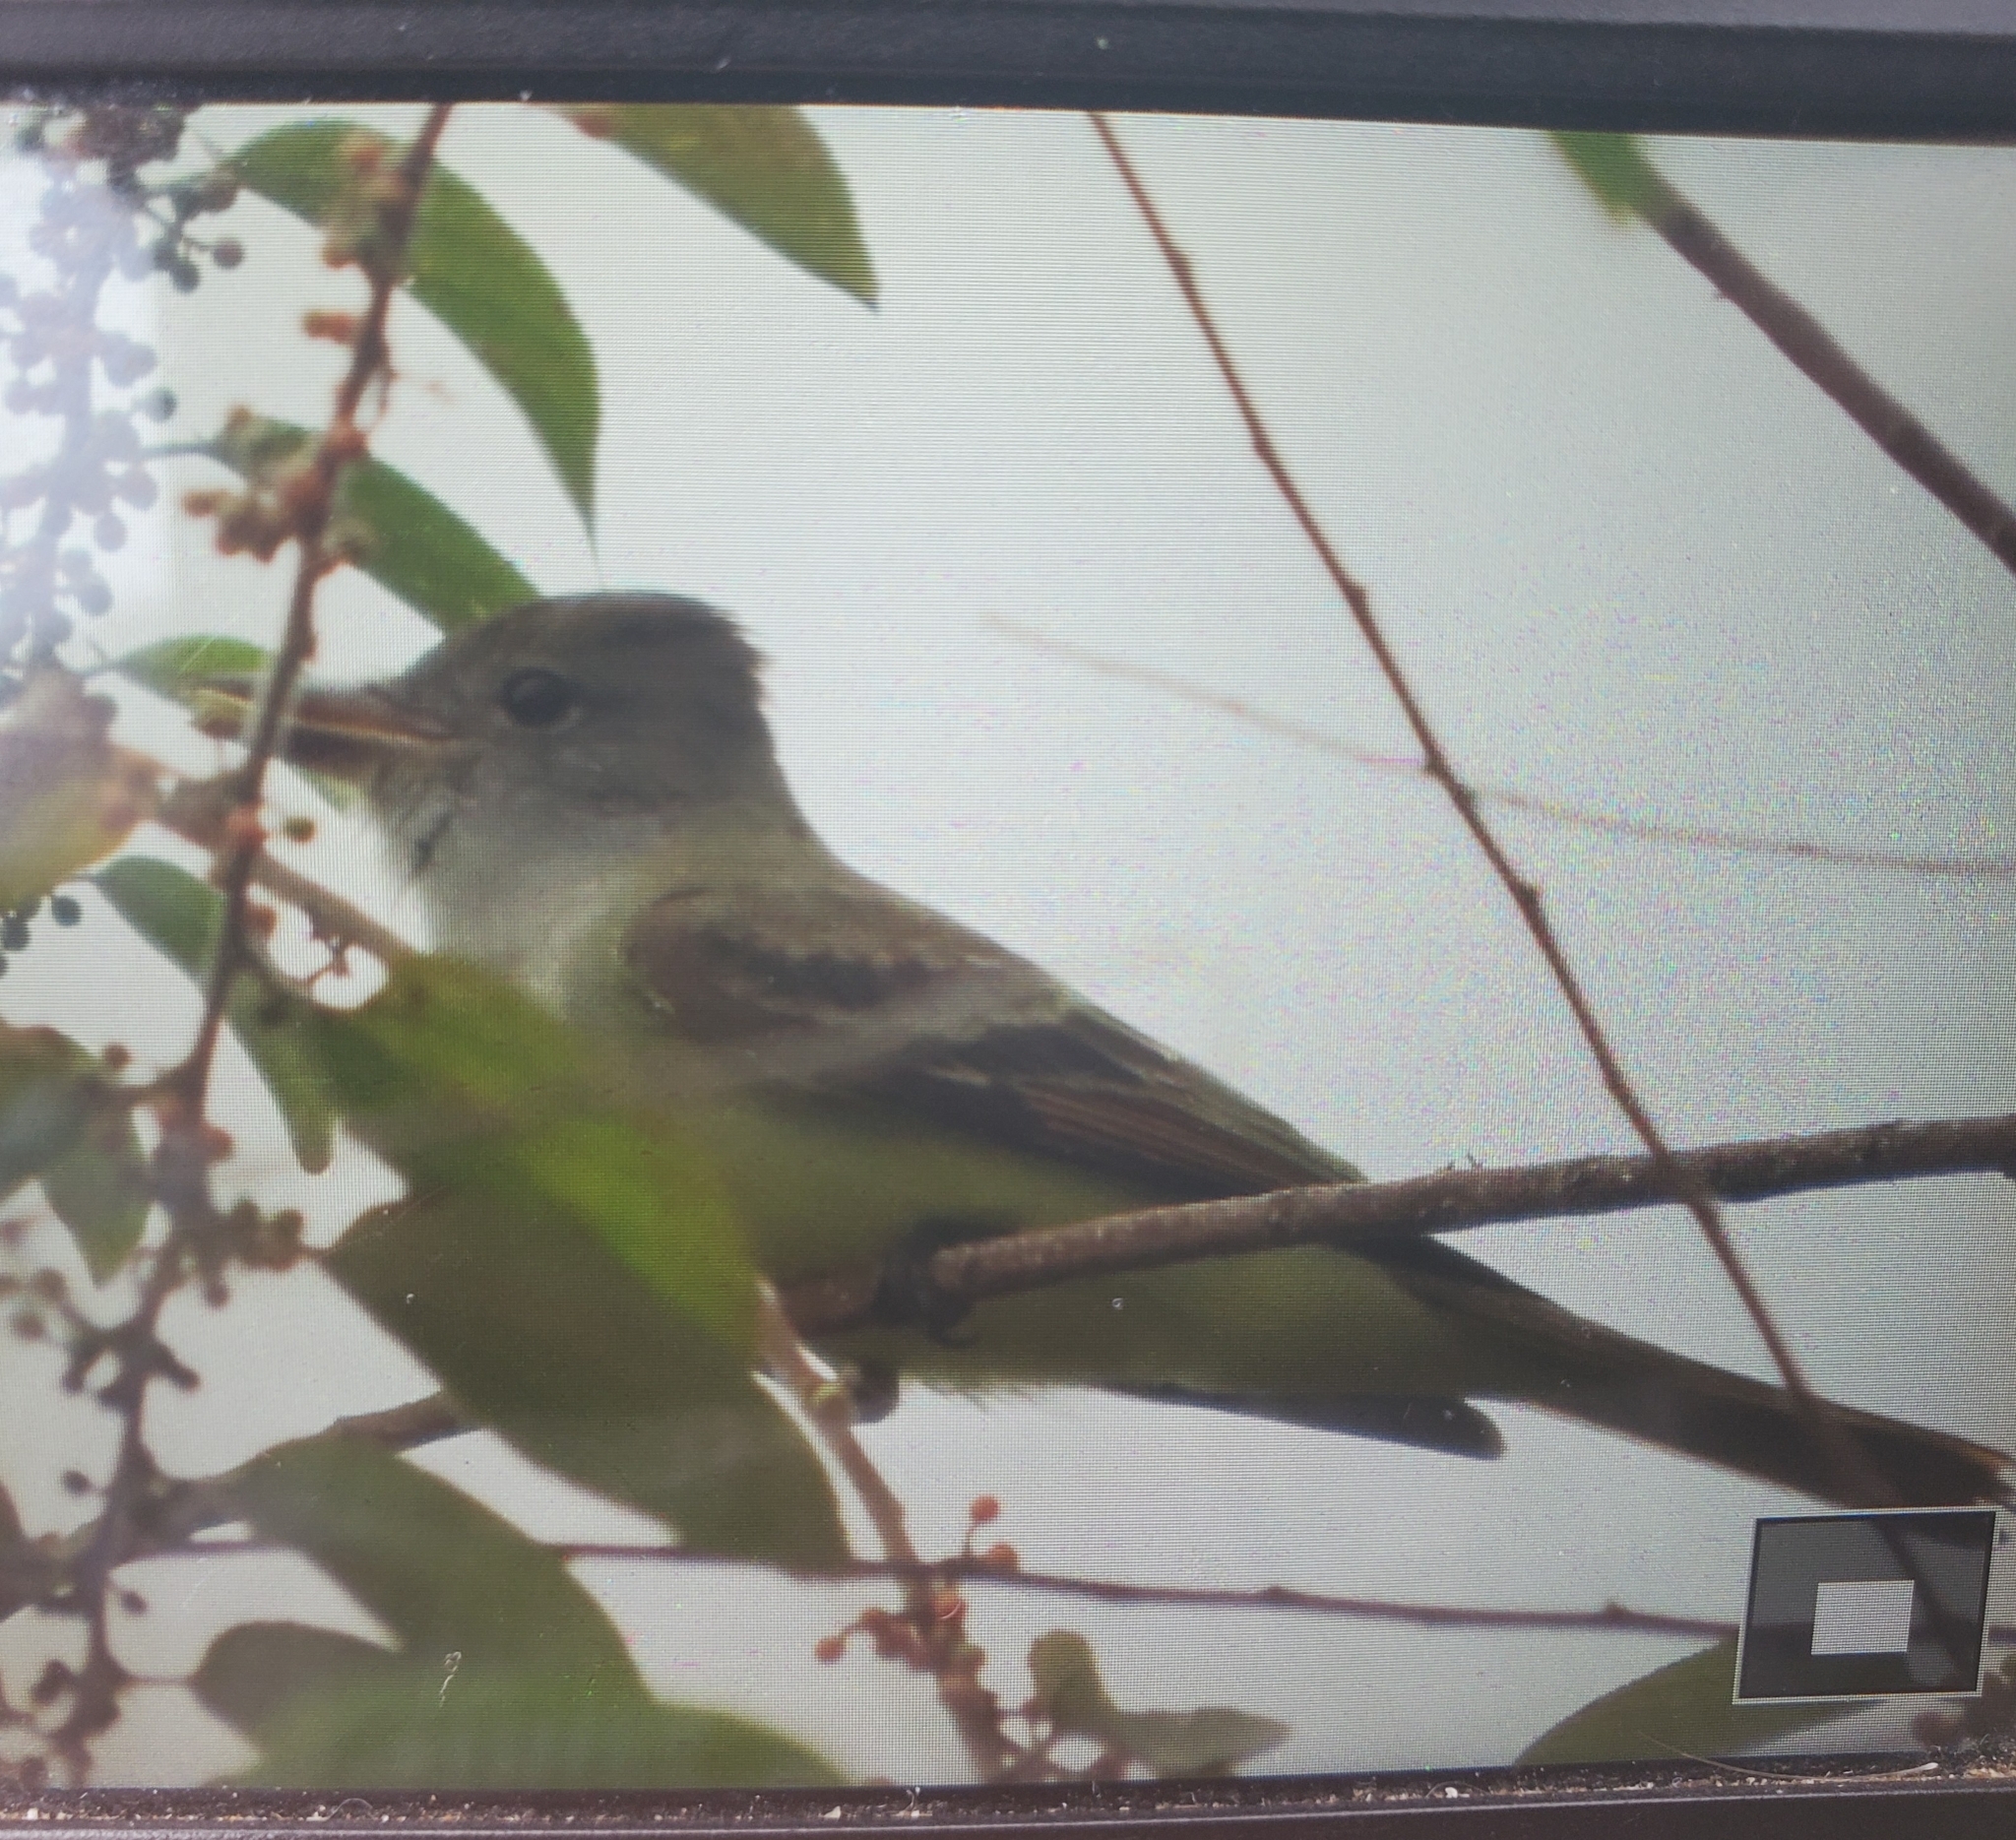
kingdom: Animalia
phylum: Chordata
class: Aves
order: Passeriformes
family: Tyrannidae
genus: Myiarchus
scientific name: Myiarchus crinitus
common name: Great crested flycatcher
